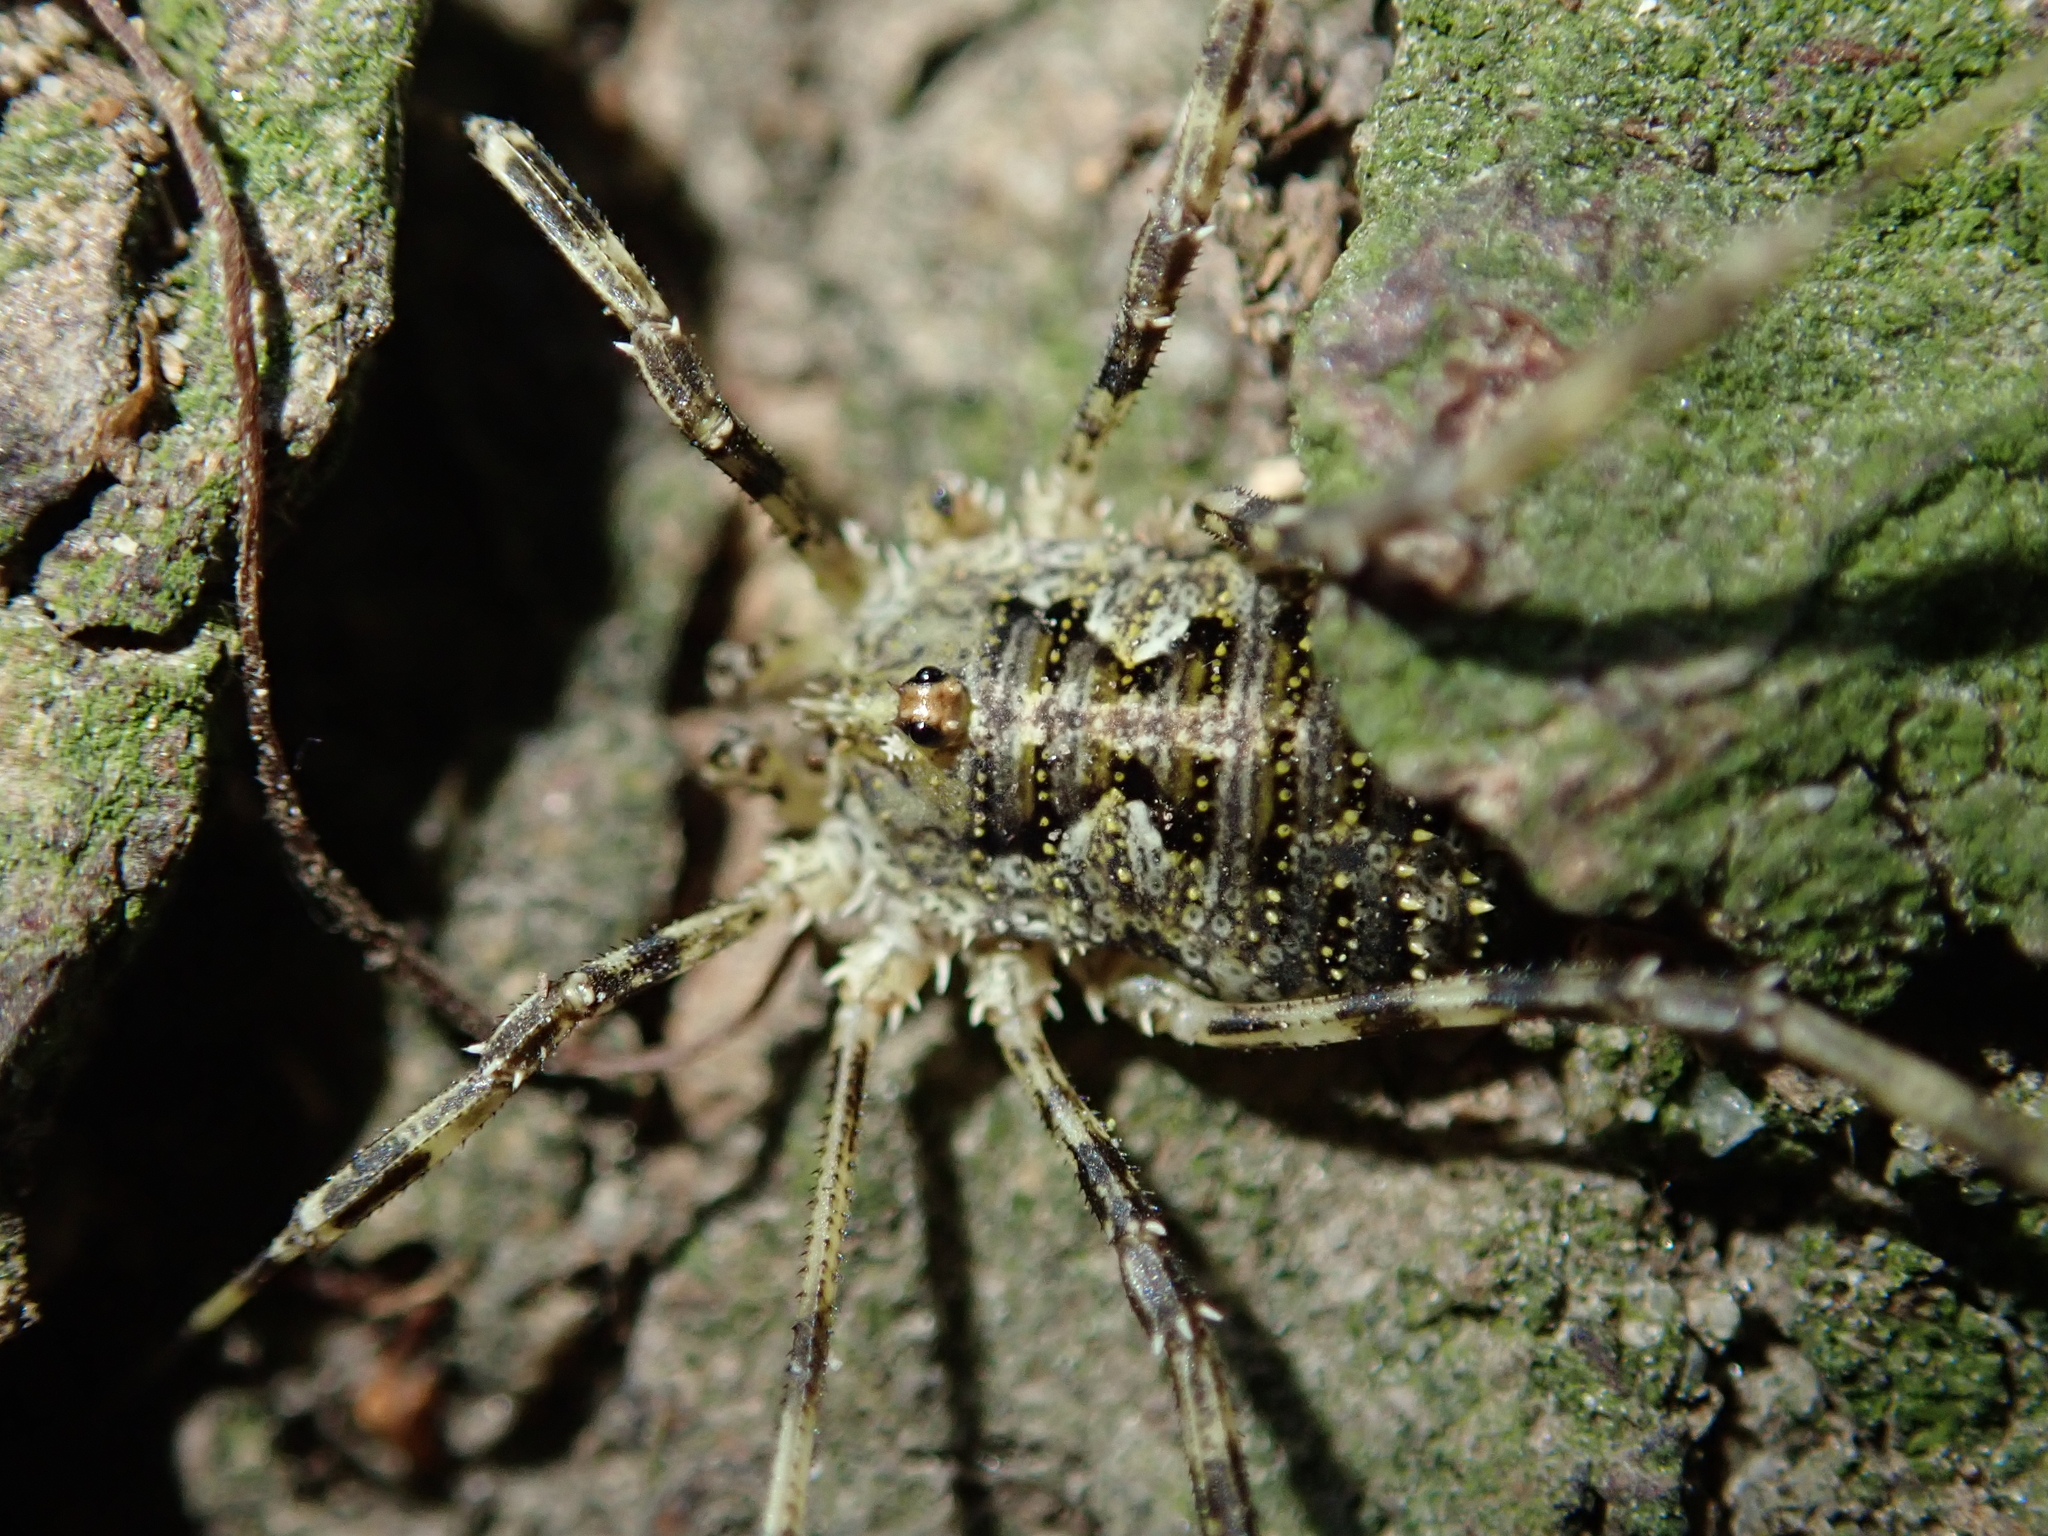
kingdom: Animalia
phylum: Arthropoda
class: Arachnida
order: Opiliones
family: Phalangiidae
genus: Lacinius
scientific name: Lacinius dentiger
